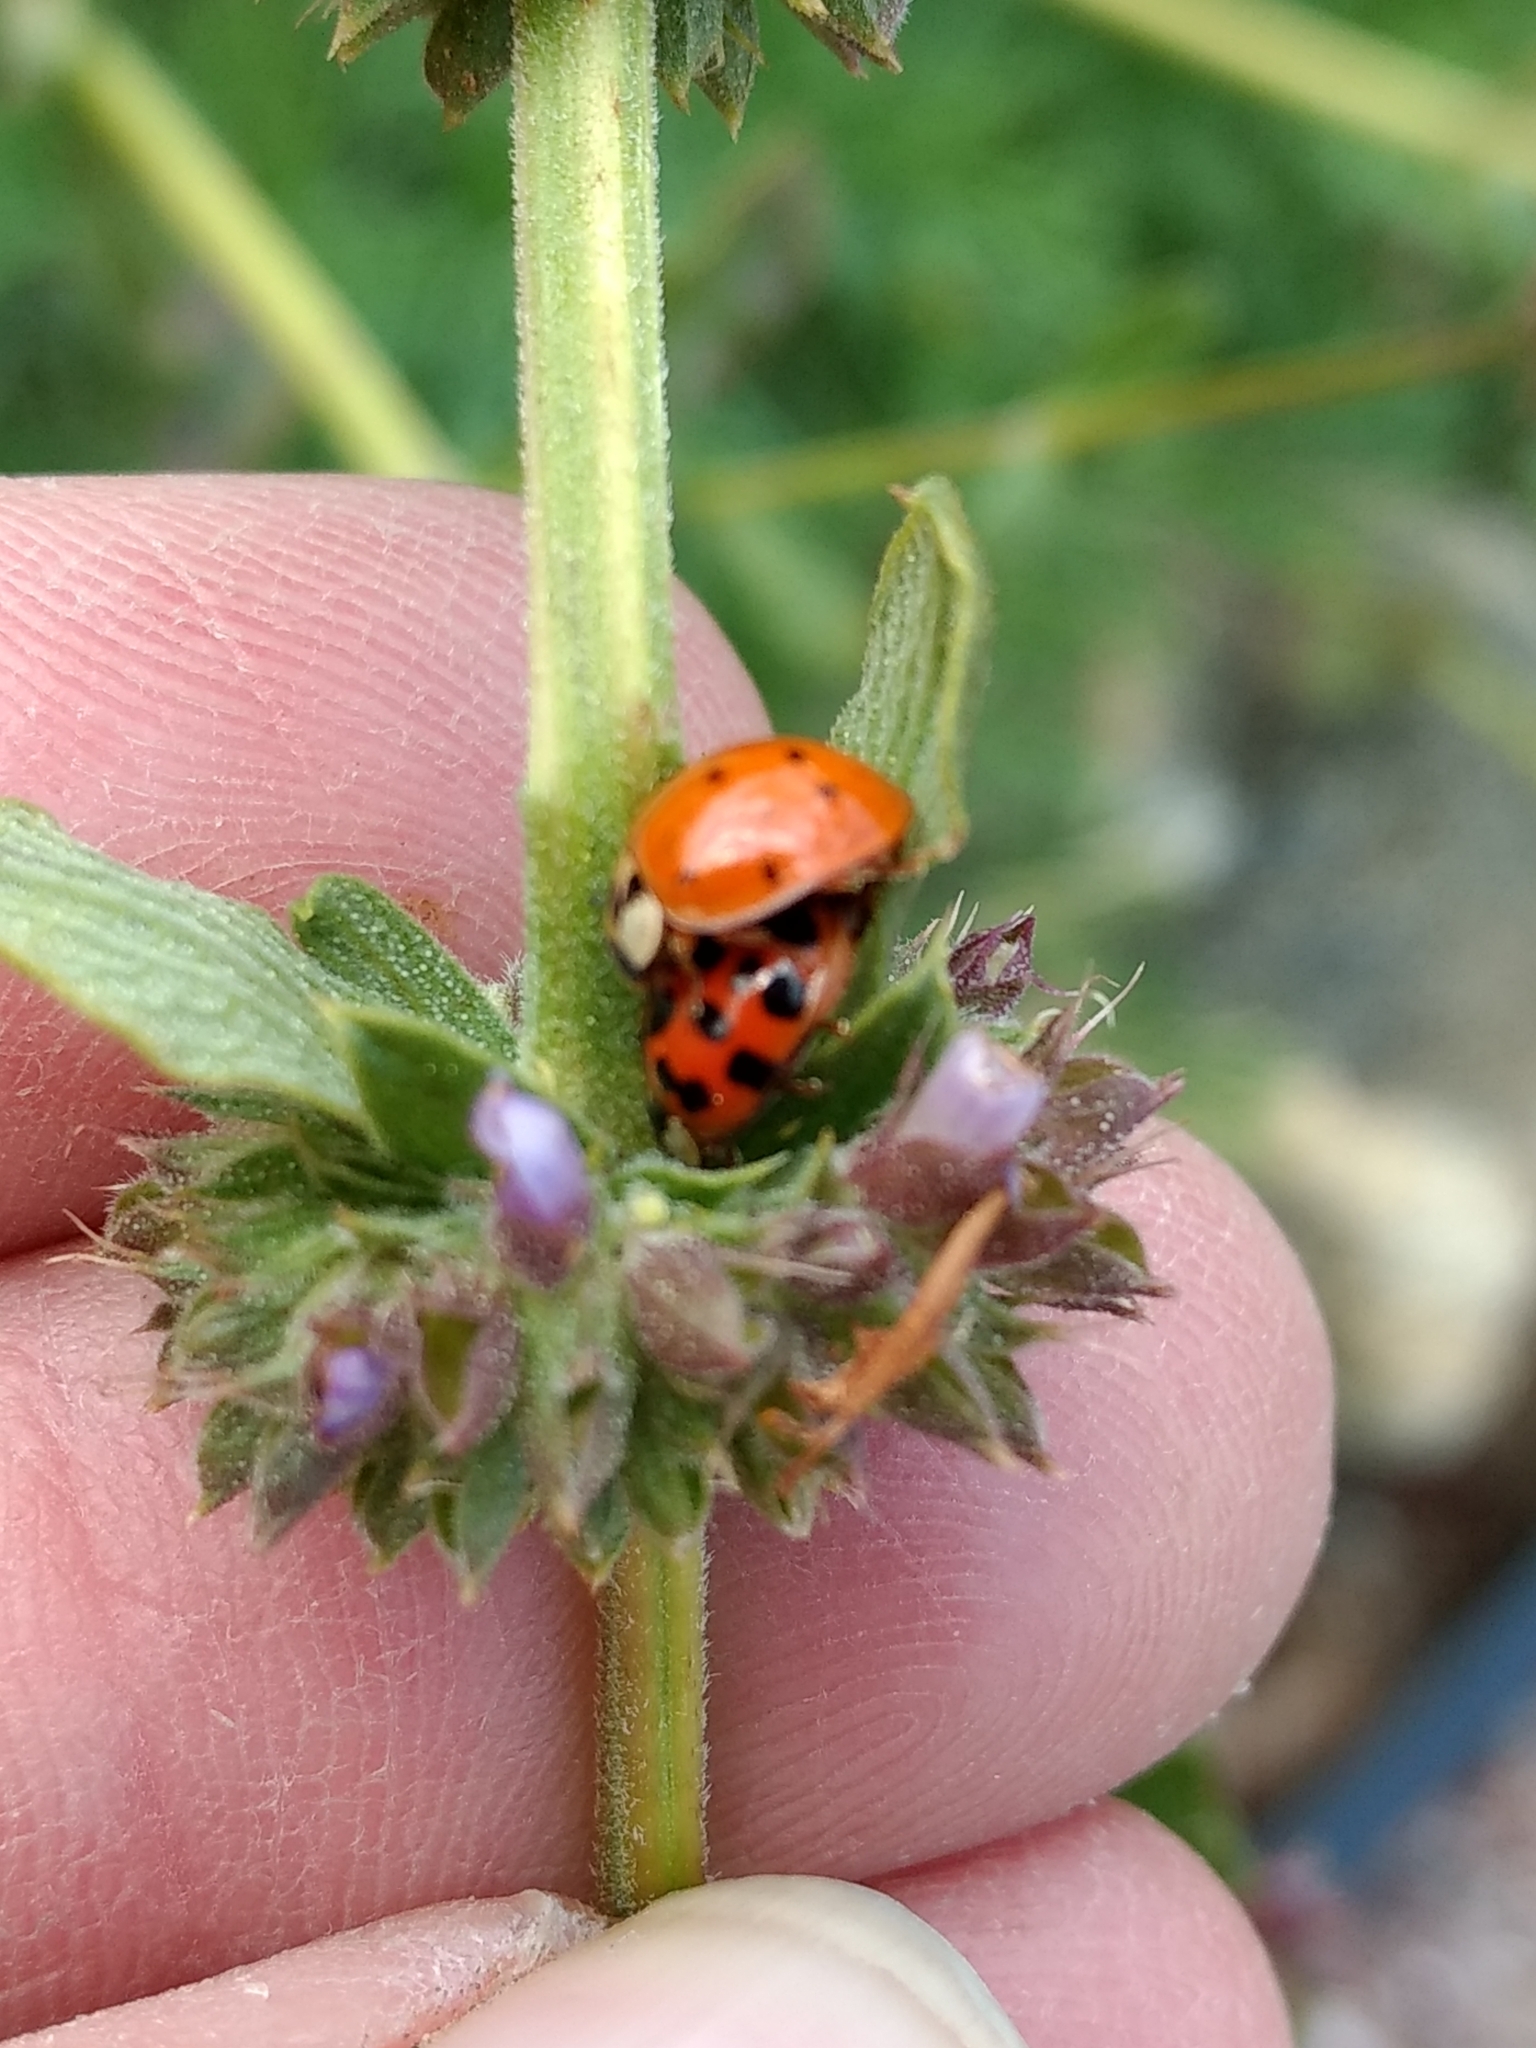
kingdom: Animalia
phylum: Arthropoda
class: Insecta
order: Coleoptera
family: Coccinellidae
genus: Harmonia
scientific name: Harmonia axyridis
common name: Harlequin ladybird
